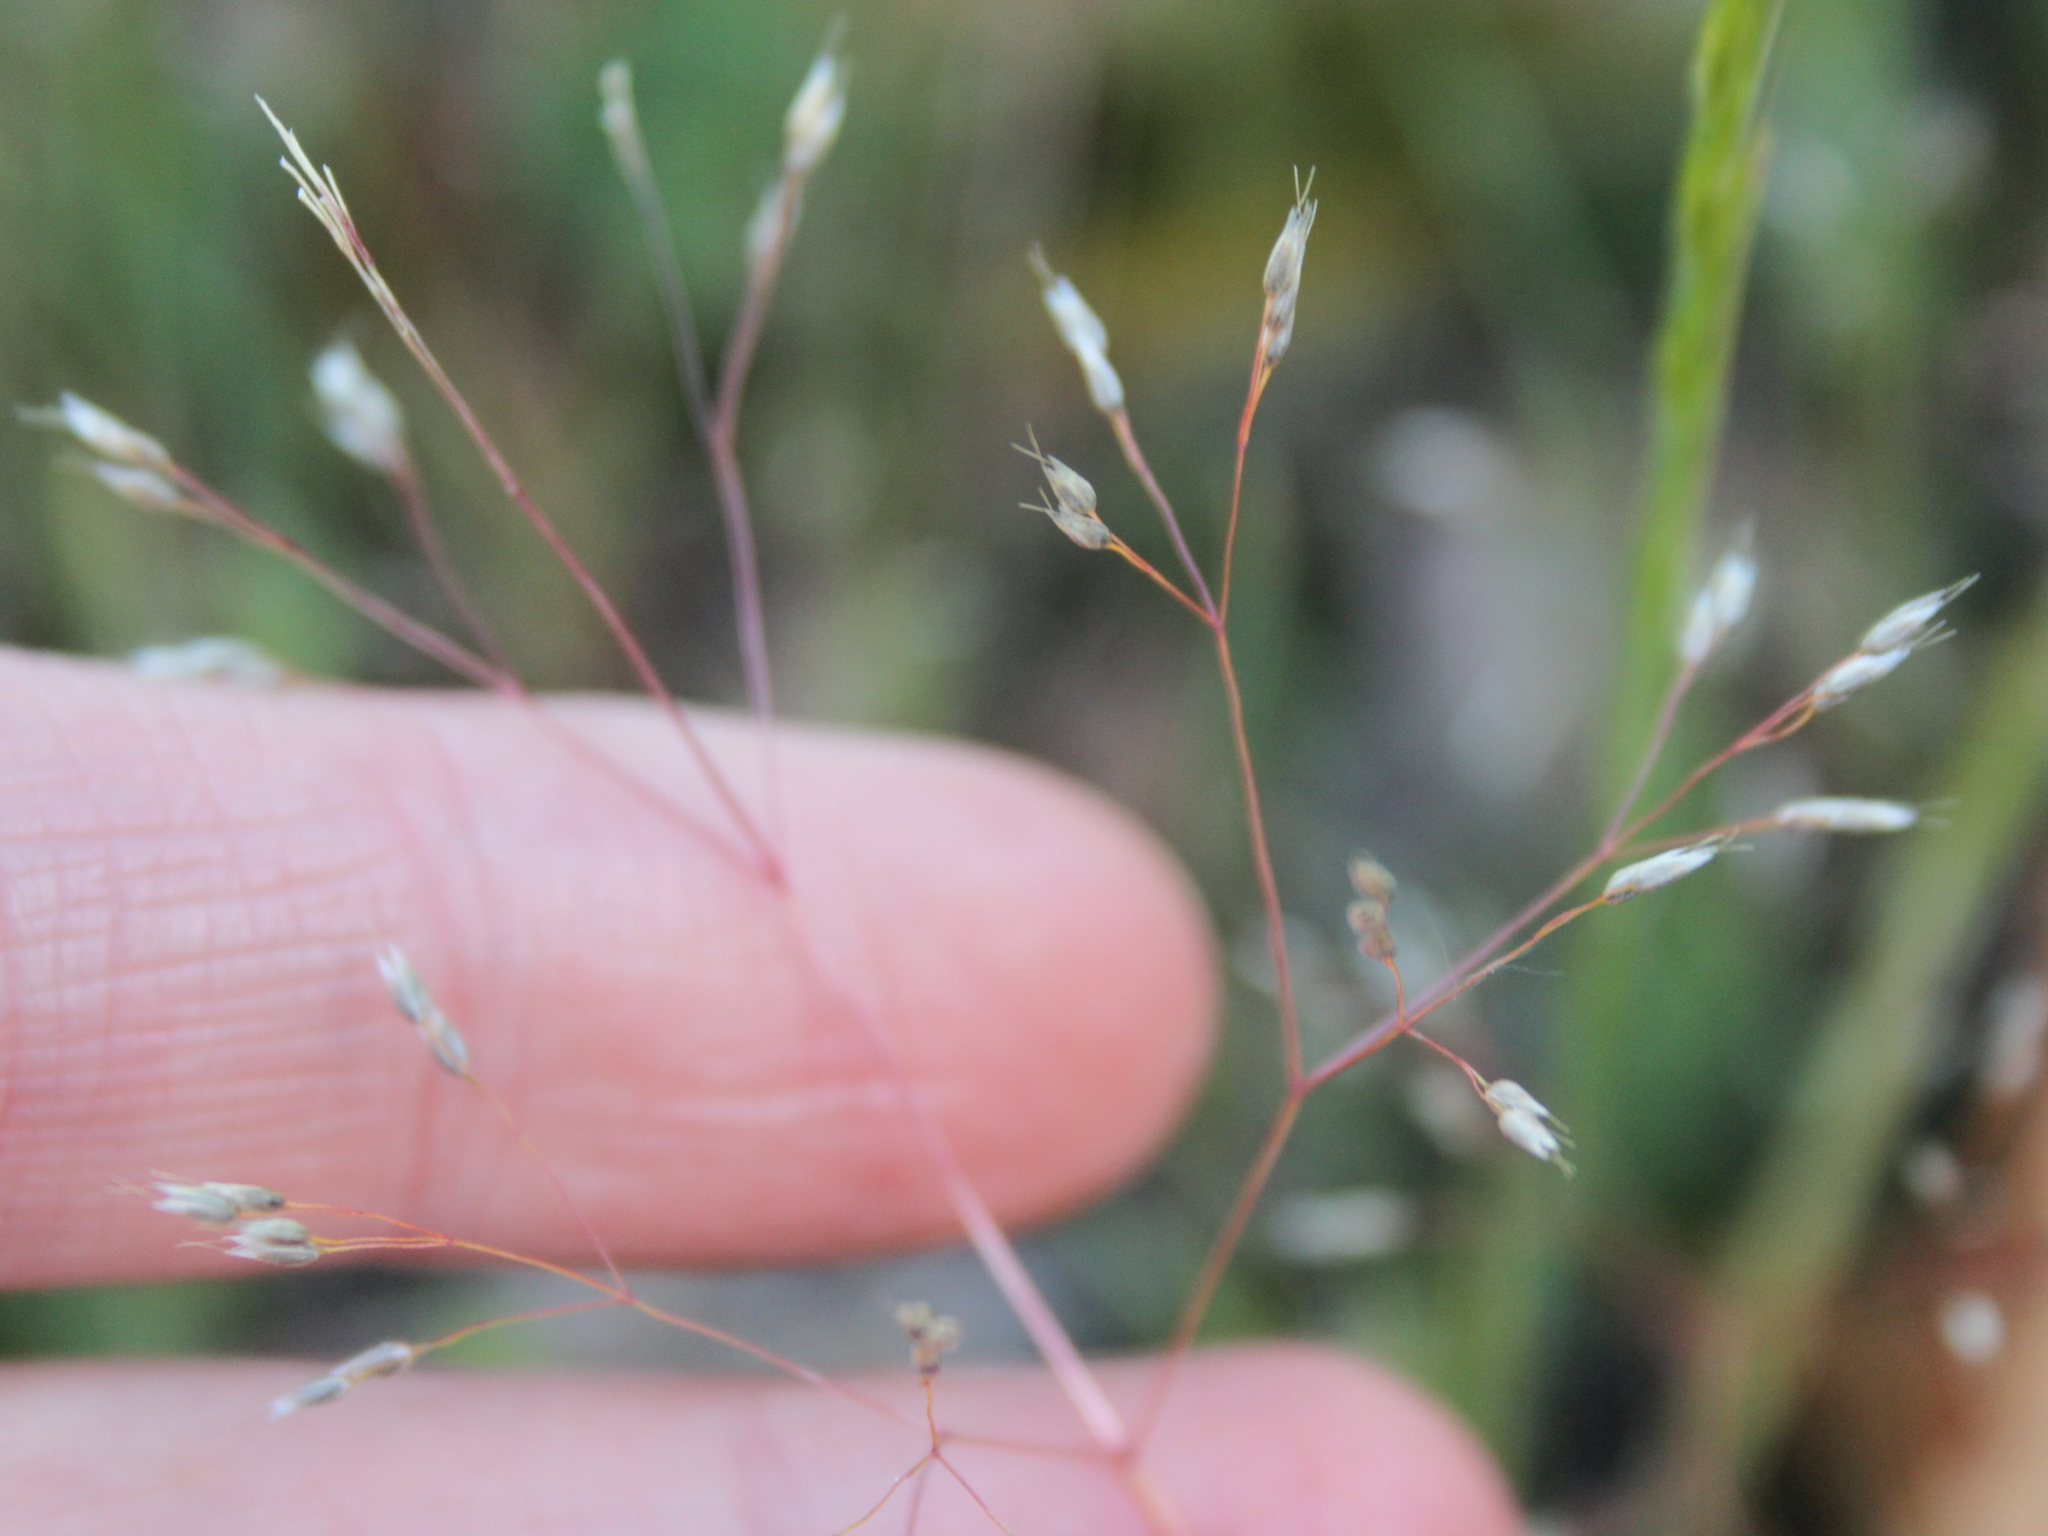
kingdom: Plantae
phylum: Tracheophyta
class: Liliopsida
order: Poales
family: Poaceae
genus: Aira
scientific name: Aira caryophyllea
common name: Silver hairgrass
